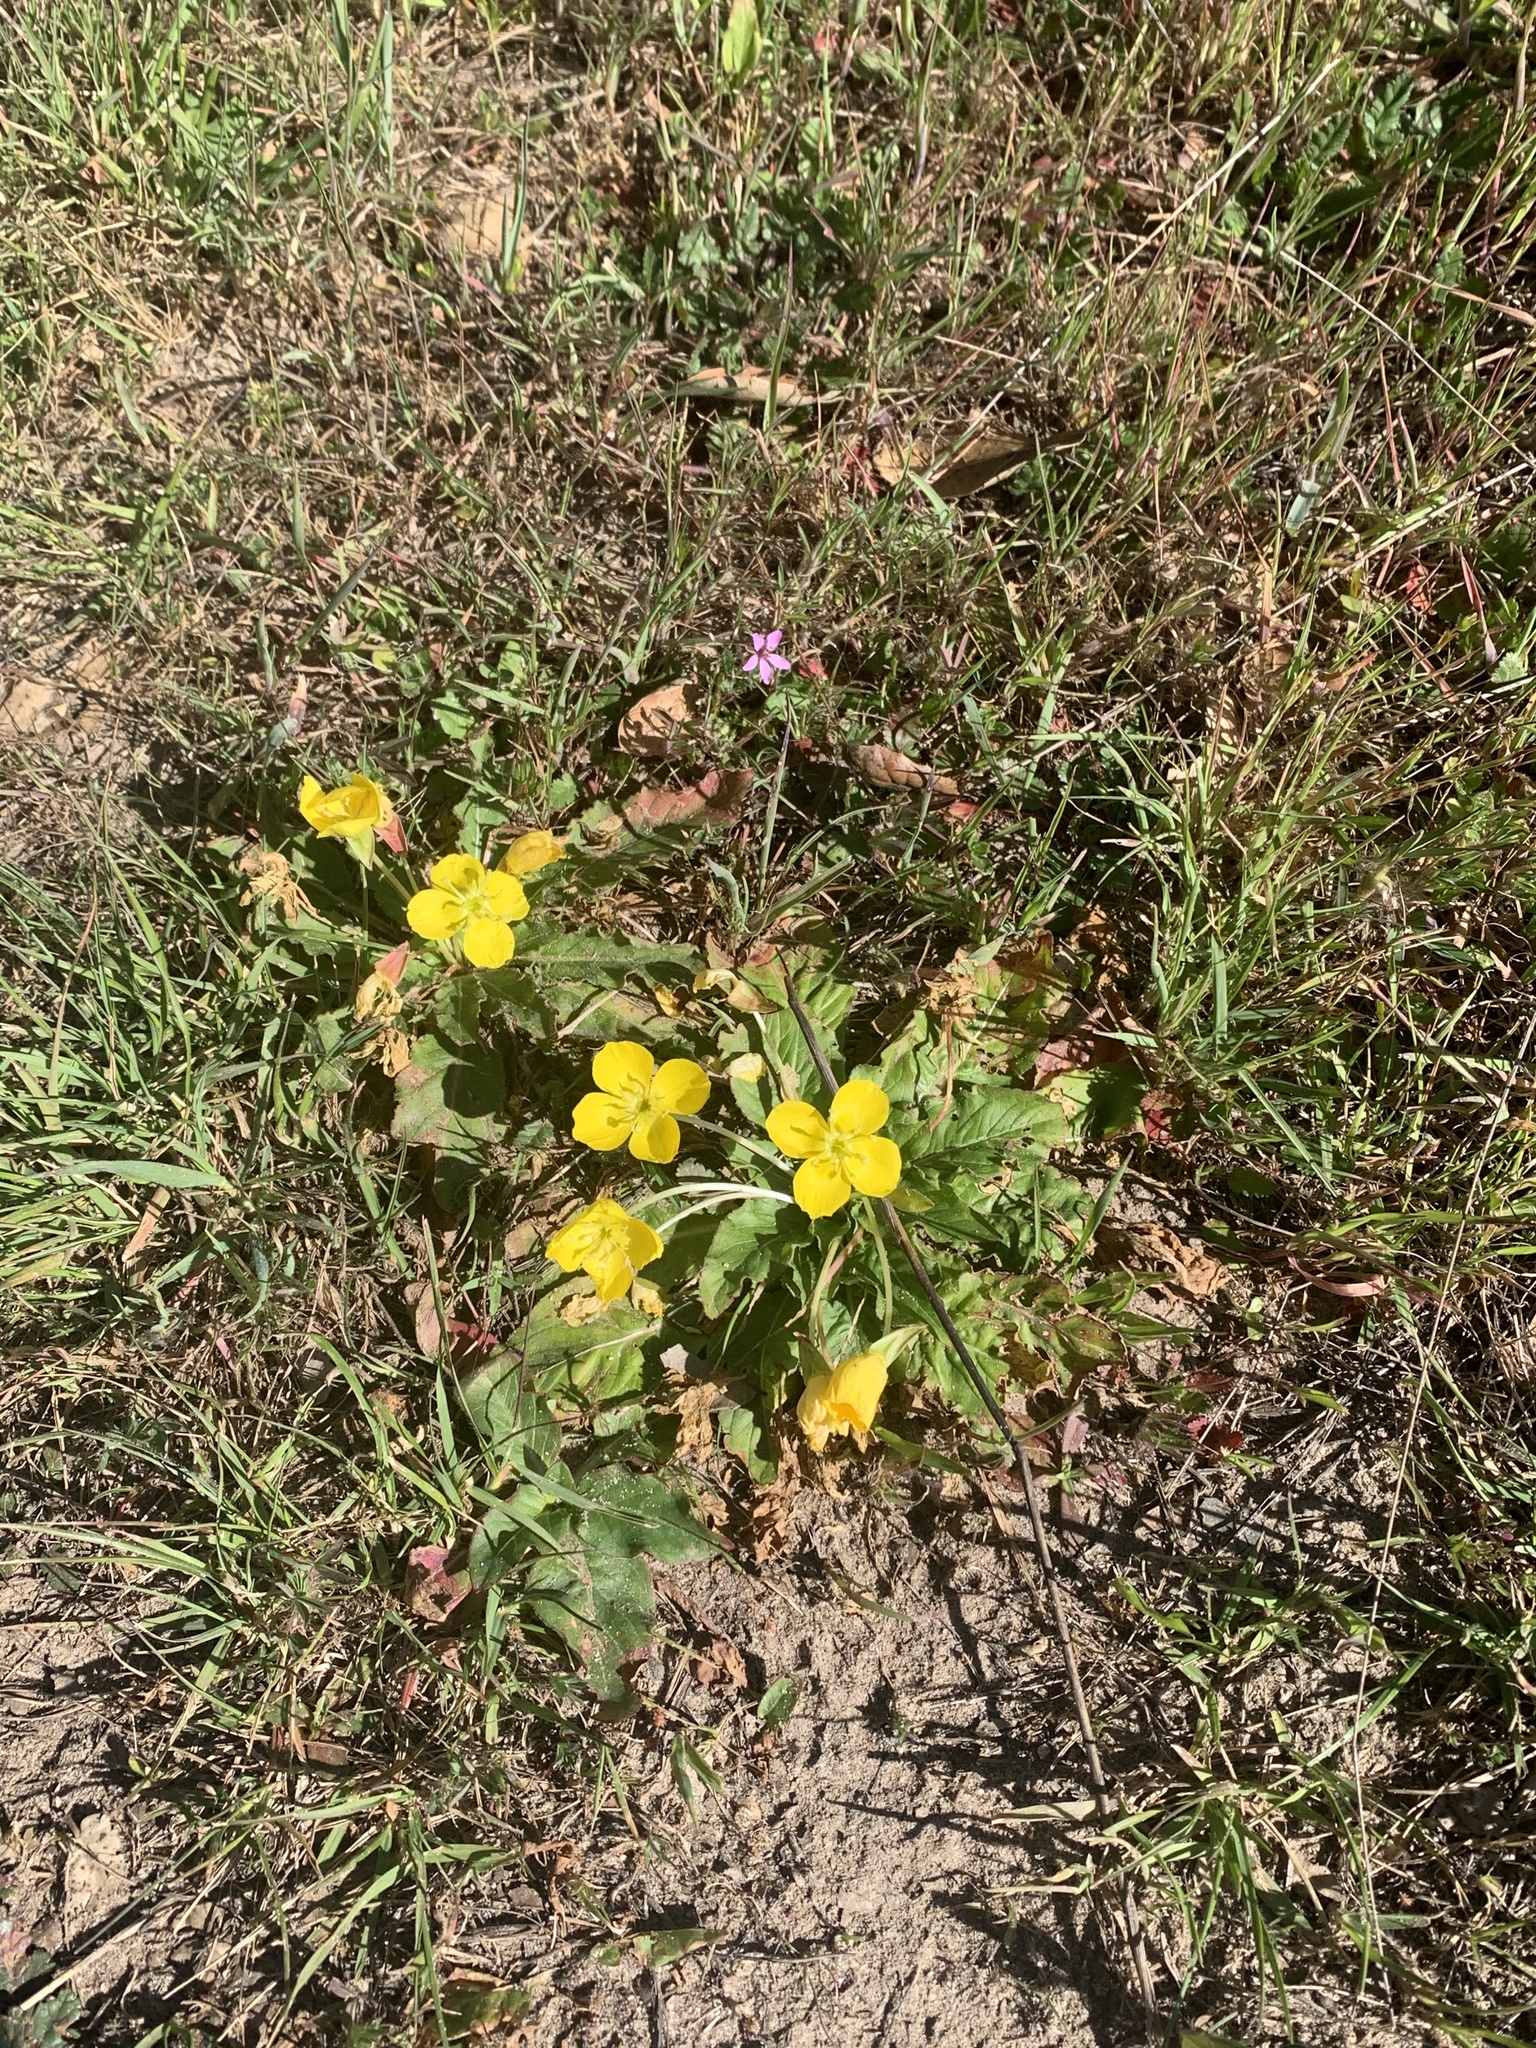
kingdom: Plantae
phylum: Tracheophyta
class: Magnoliopsida
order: Myrtales
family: Onagraceae
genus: Taraxia
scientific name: Taraxia ovata
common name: Goldeneggs
